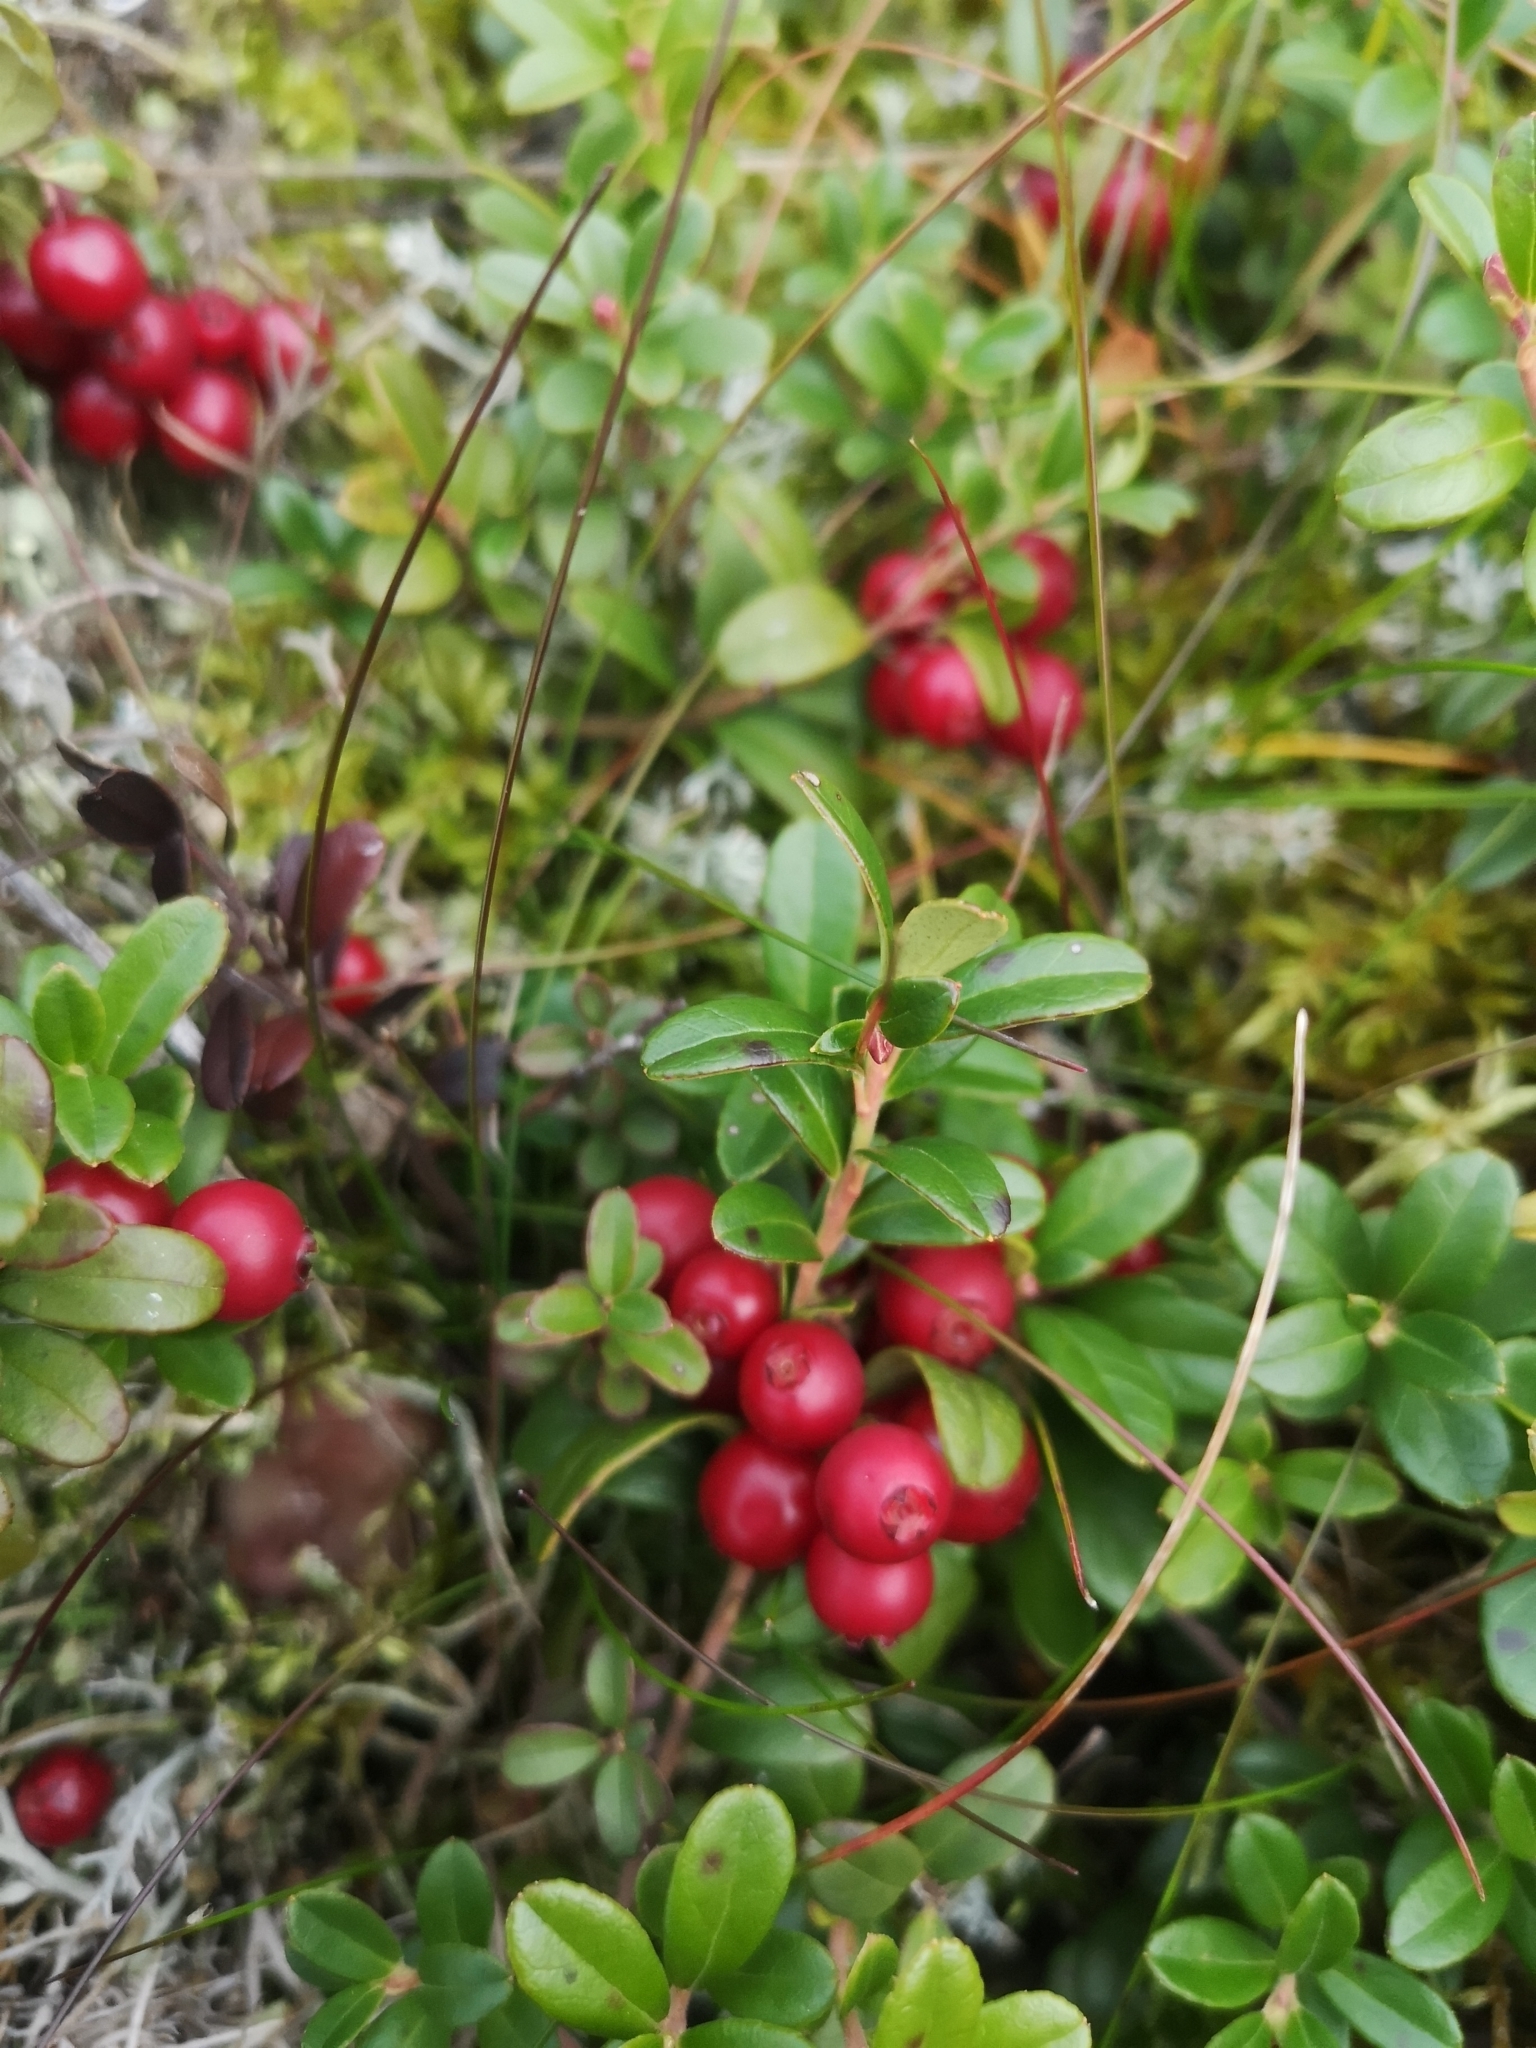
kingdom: Plantae
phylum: Tracheophyta
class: Magnoliopsida
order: Ericales
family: Ericaceae
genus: Vaccinium
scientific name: Vaccinium vitis-idaea
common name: Cowberry
